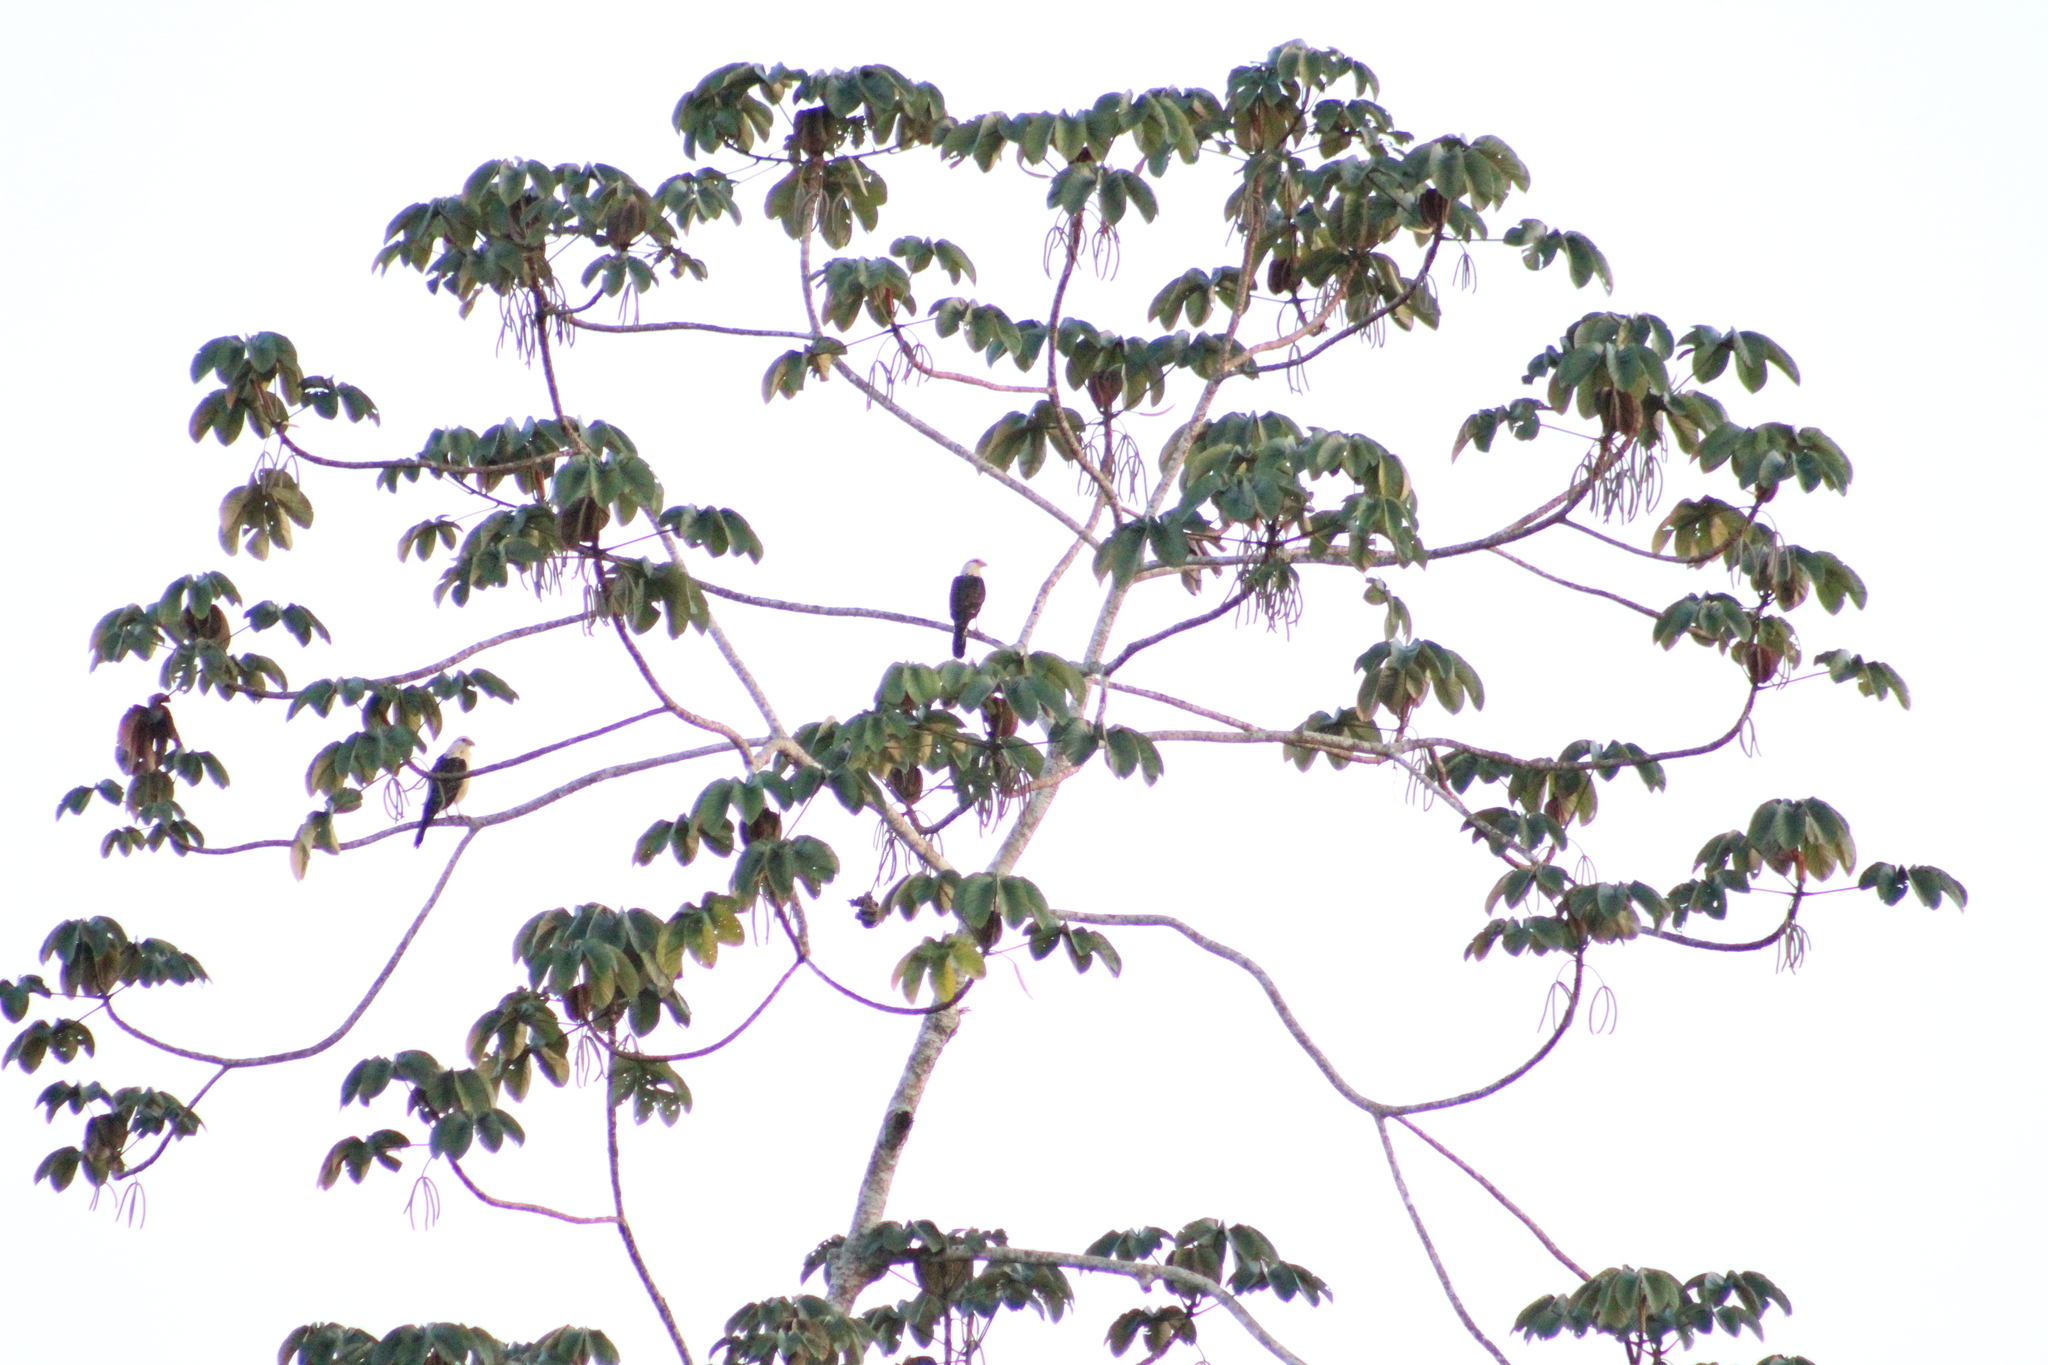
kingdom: Animalia
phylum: Chordata
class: Aves
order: Falconiformes
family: Falconidae
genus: Daptrius
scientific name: Daptrius
